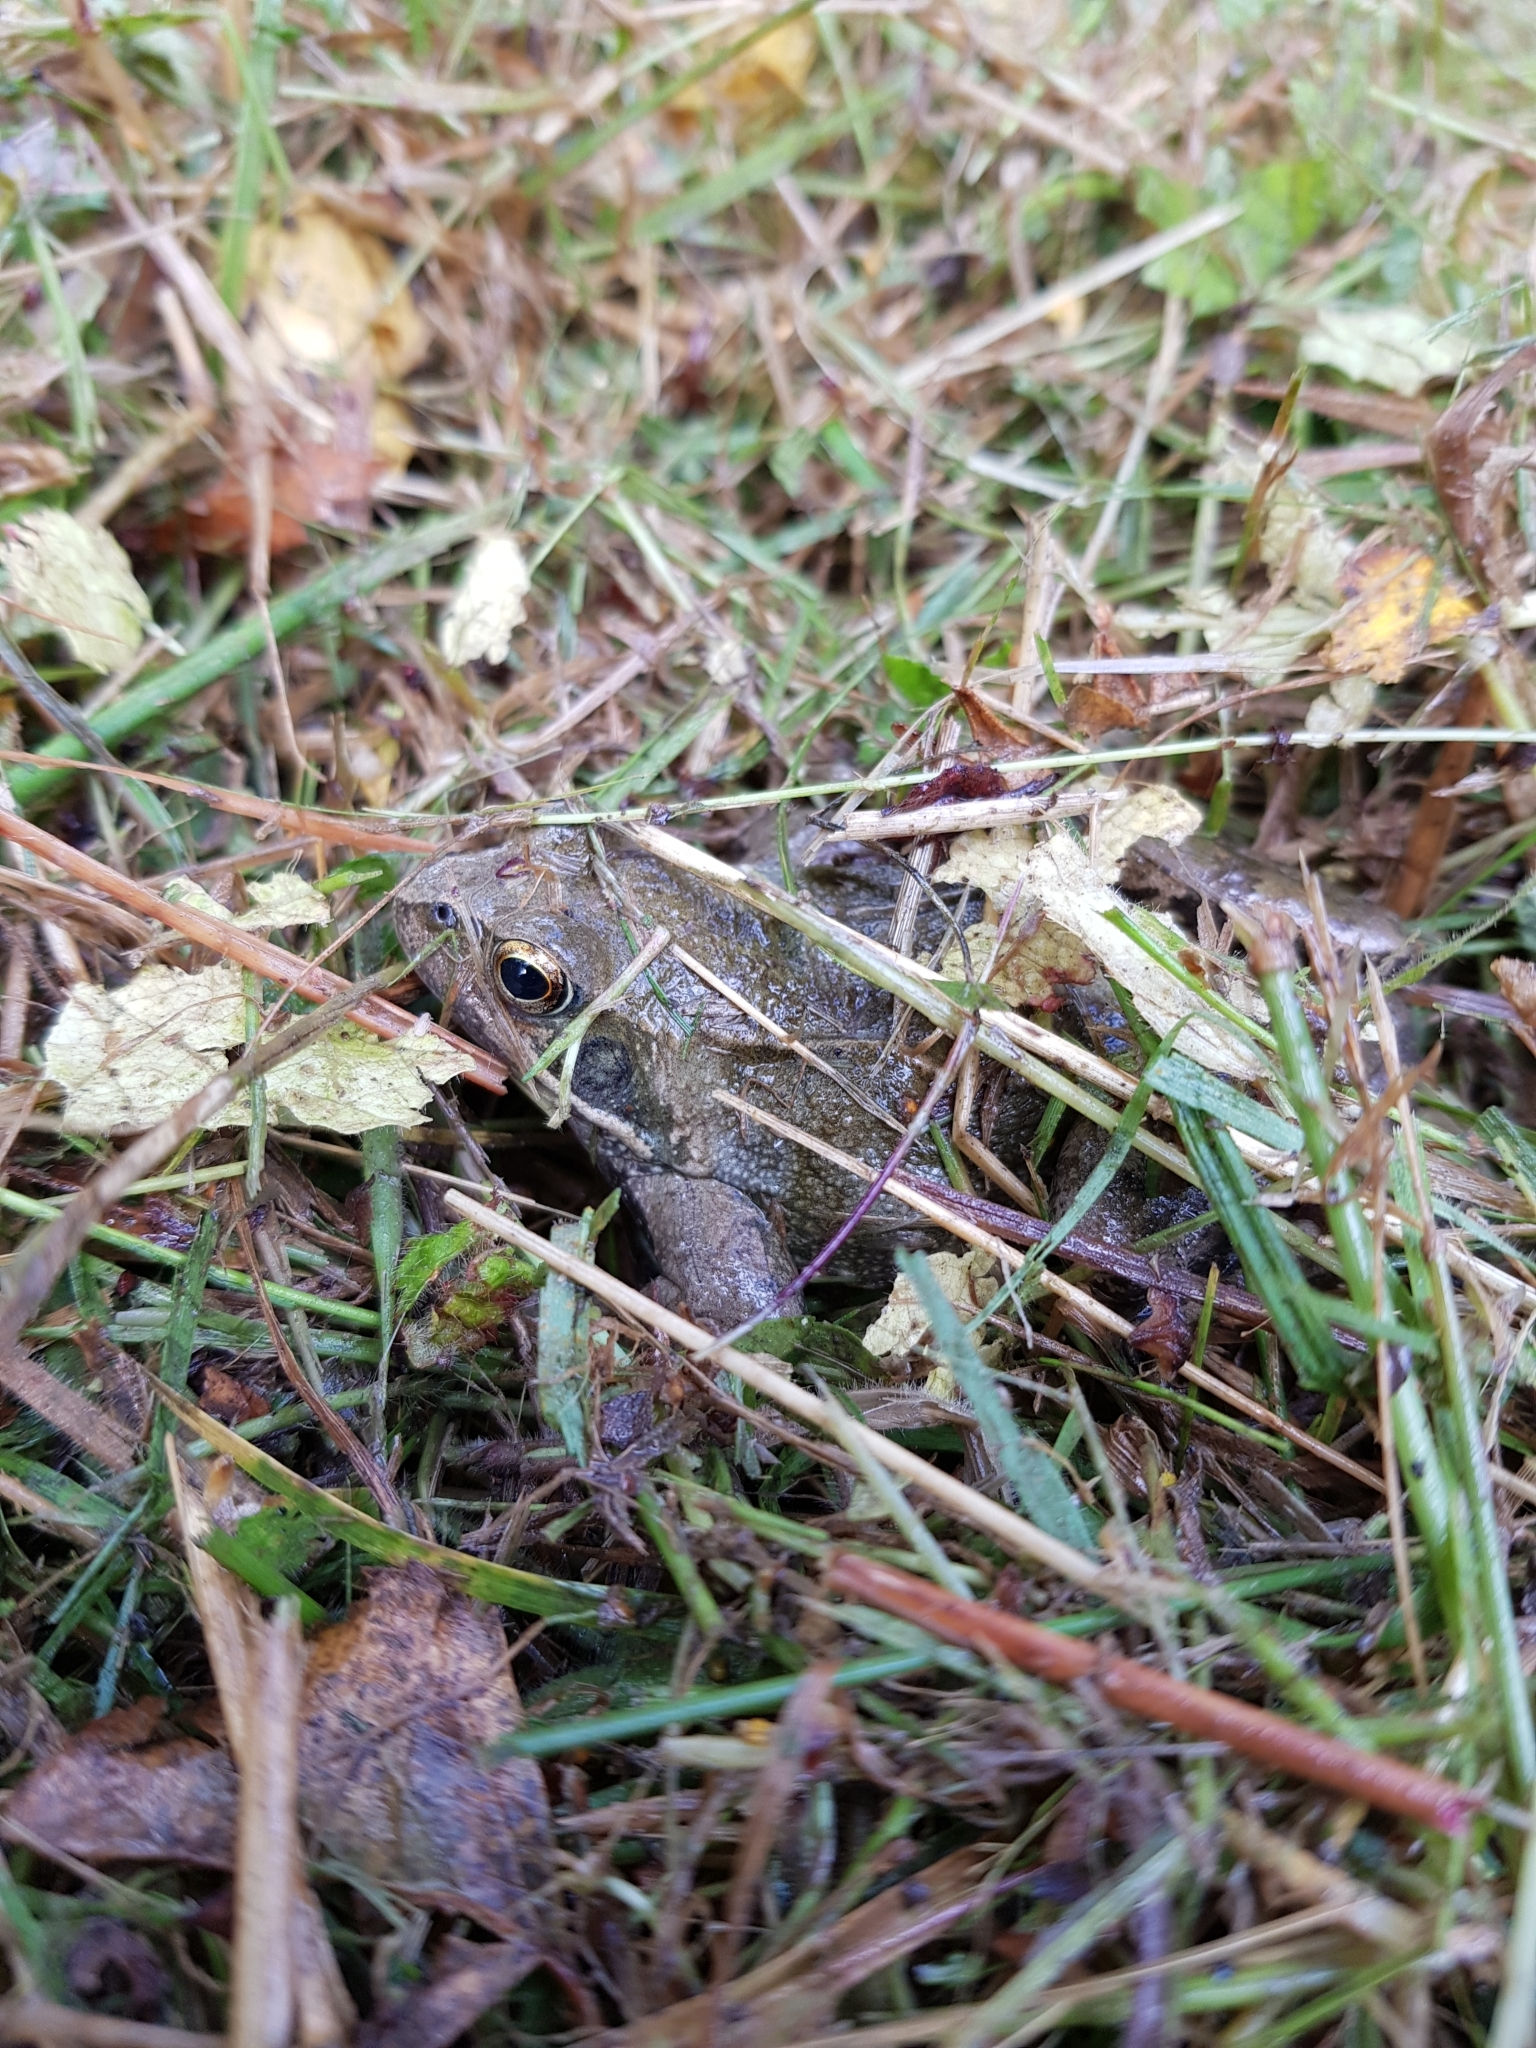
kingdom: Animalia
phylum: Chordata
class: Amphibia
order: Anura
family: Ranidae
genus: Rana
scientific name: Rana temporaria
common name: Common frog
